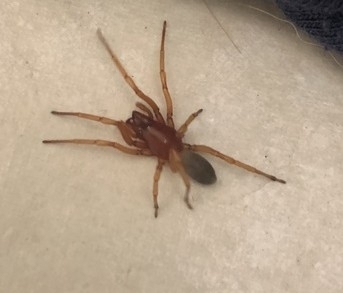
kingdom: Animalia
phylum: Arthropoda
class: Arachnida
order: Araneae
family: Dysderidae
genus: Dysdera
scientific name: Dysdera crocata
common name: Woodlouse spider
